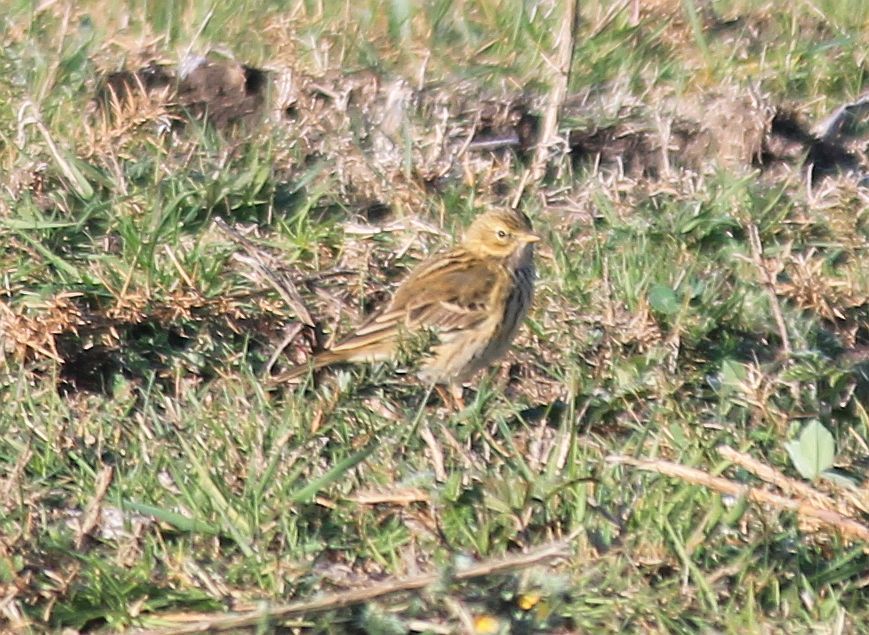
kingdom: Animalia
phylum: Chordata
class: Aves
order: Passeriformes
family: Motacillidae
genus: Anthus
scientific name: Anthus pratensis
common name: Meadow pipit
